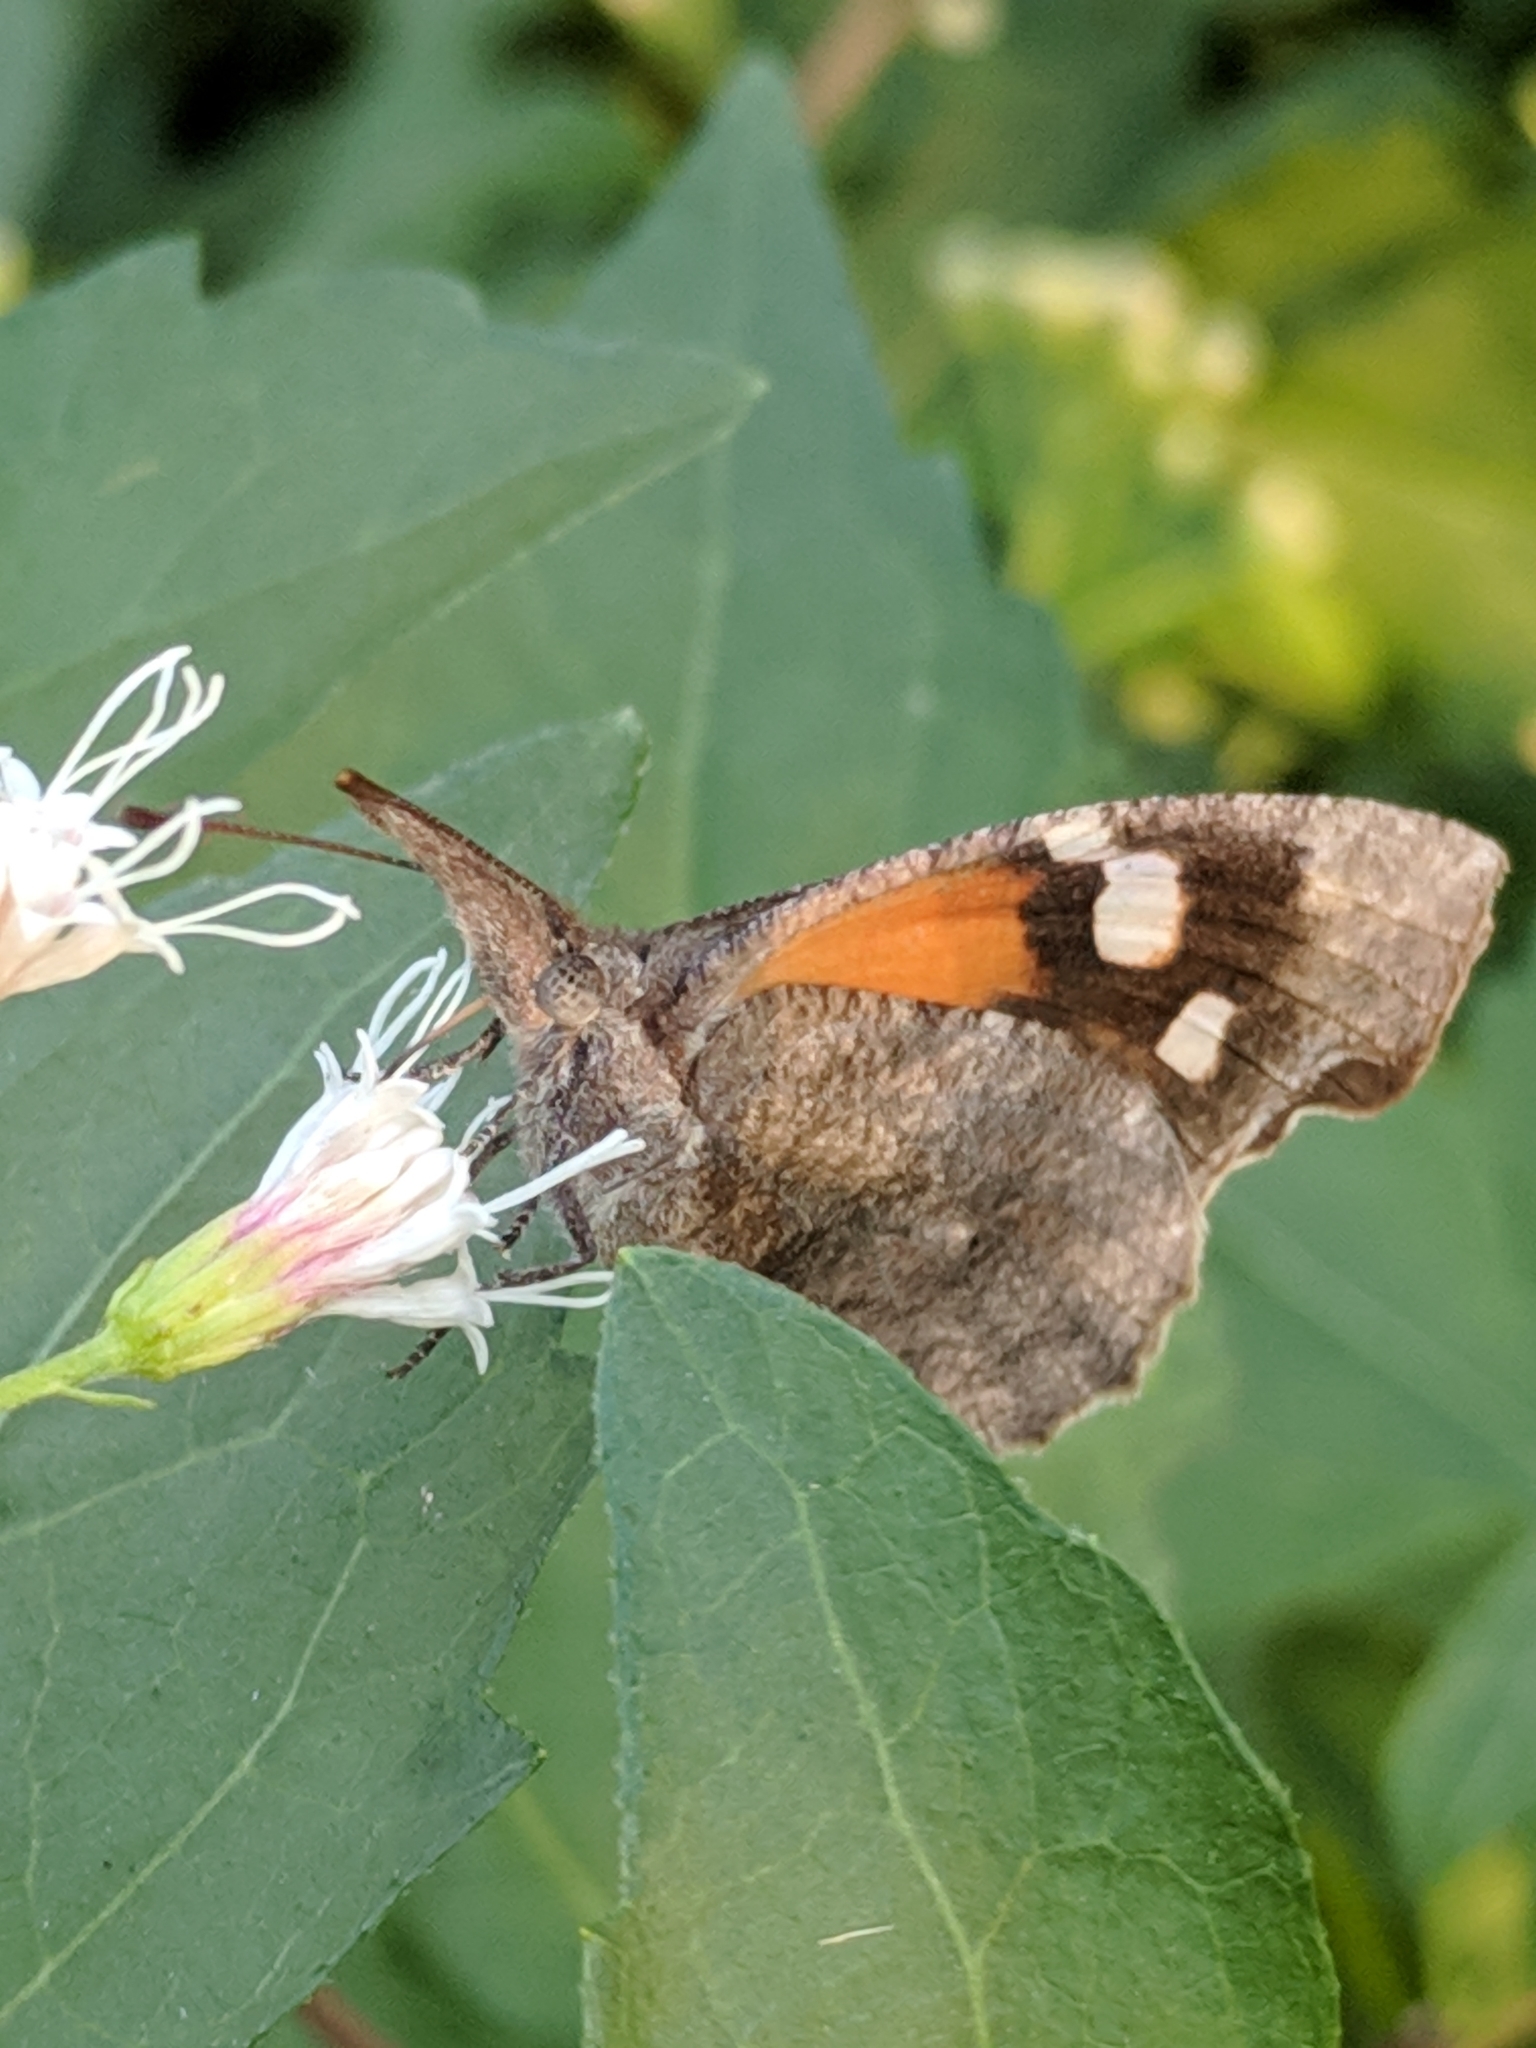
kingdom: Animalia
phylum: Arthropoda
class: Insecta
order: Lepidoptera
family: Nymphalidae
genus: Libytheana
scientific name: Libytheana carinenta
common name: American snout
